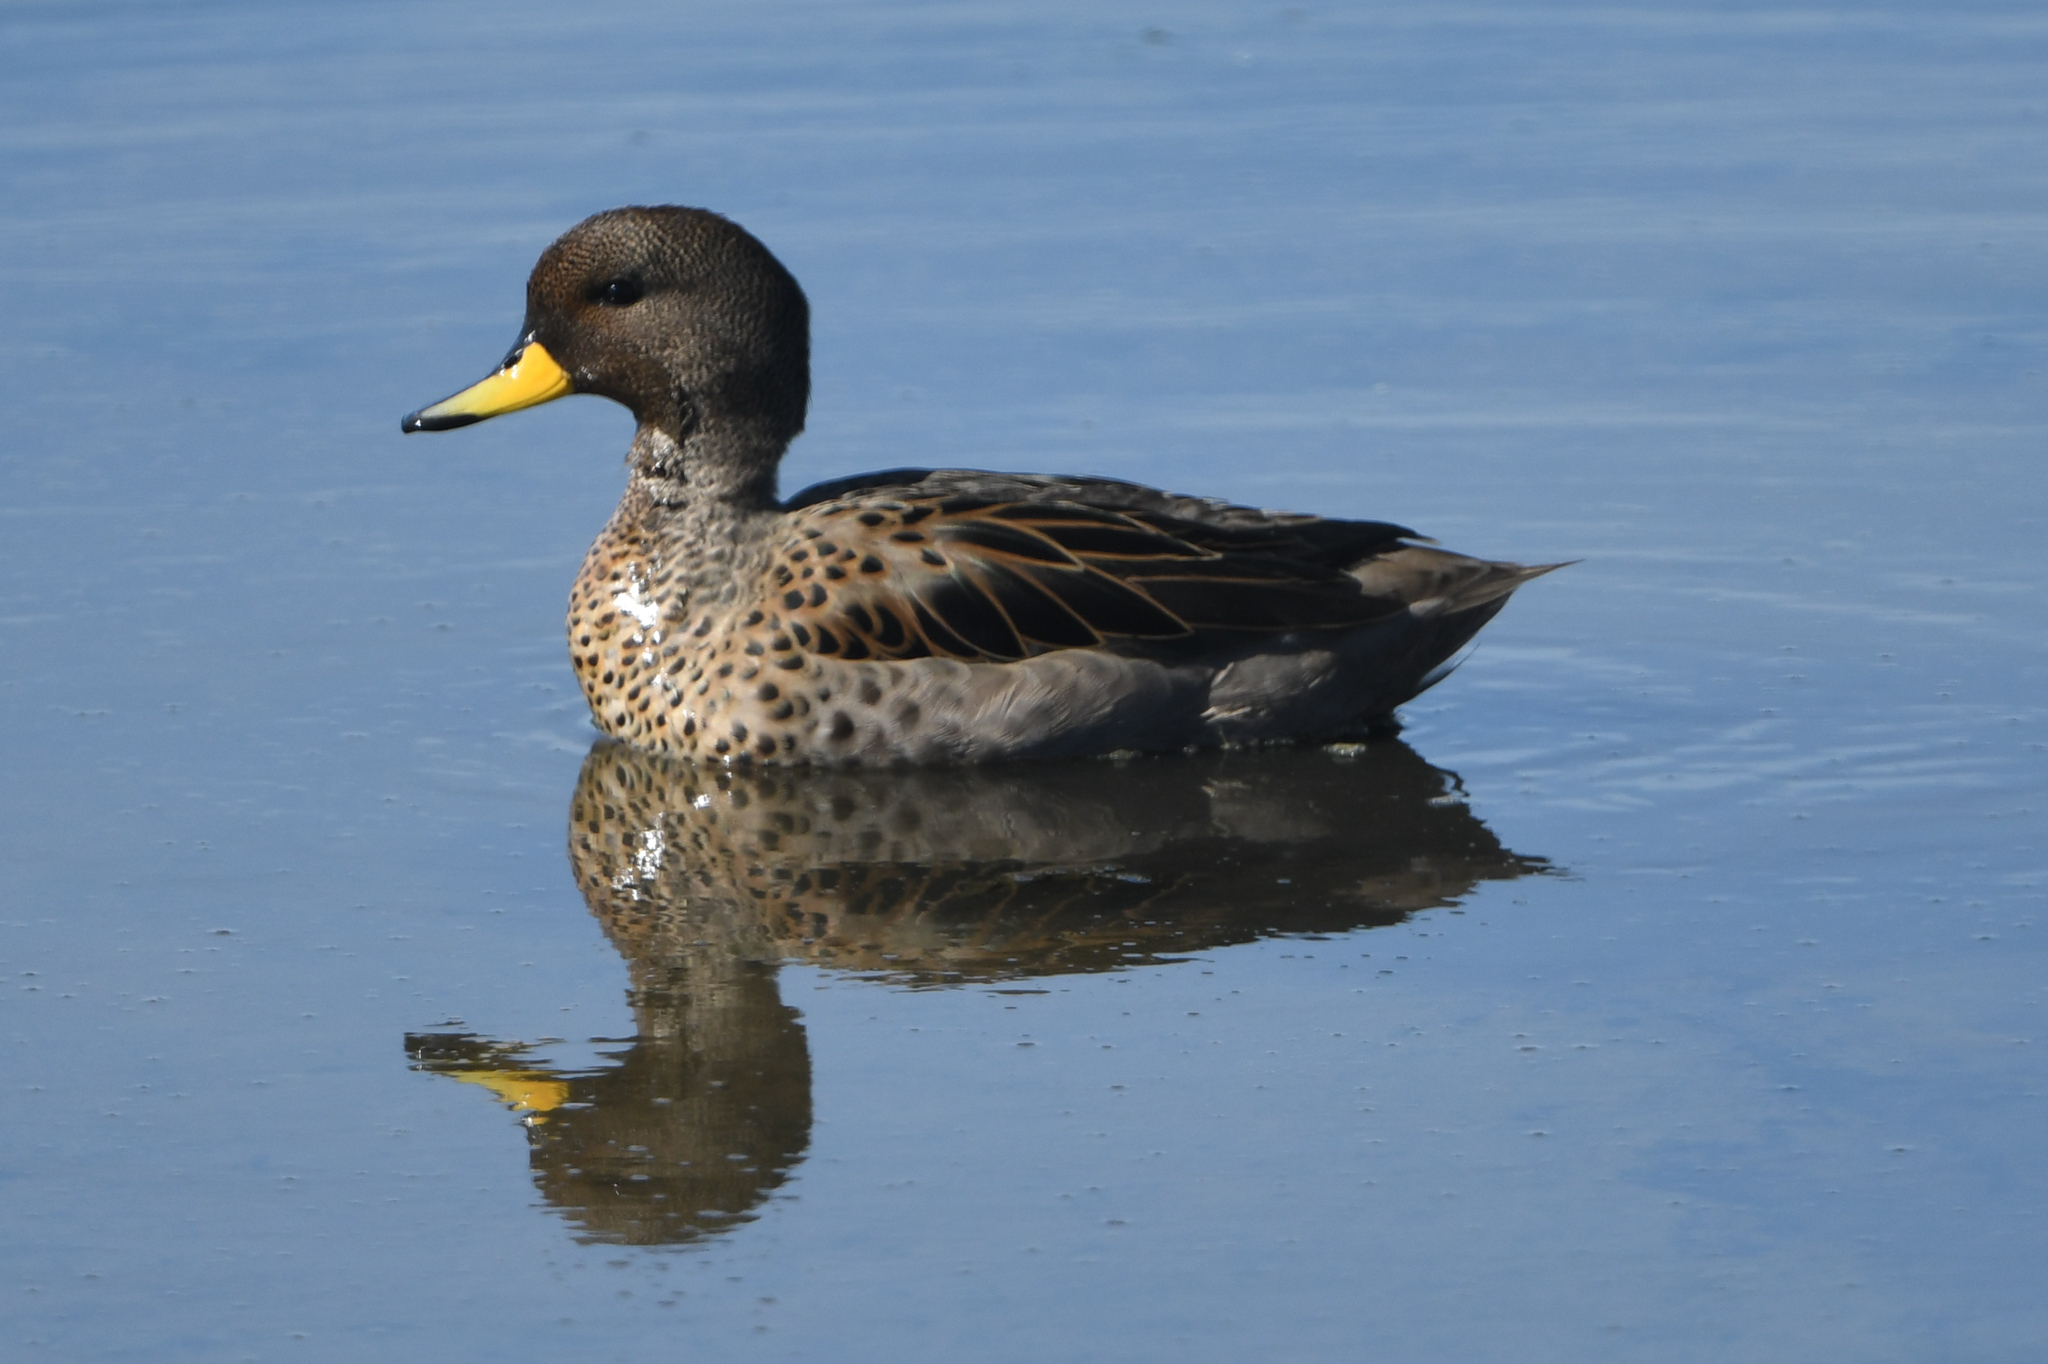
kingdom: Animalia
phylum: Chordata
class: Aves
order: Anseriformes
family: Anatidae
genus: Anas
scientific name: Anas flavirostris
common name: Yellow-billed teal
